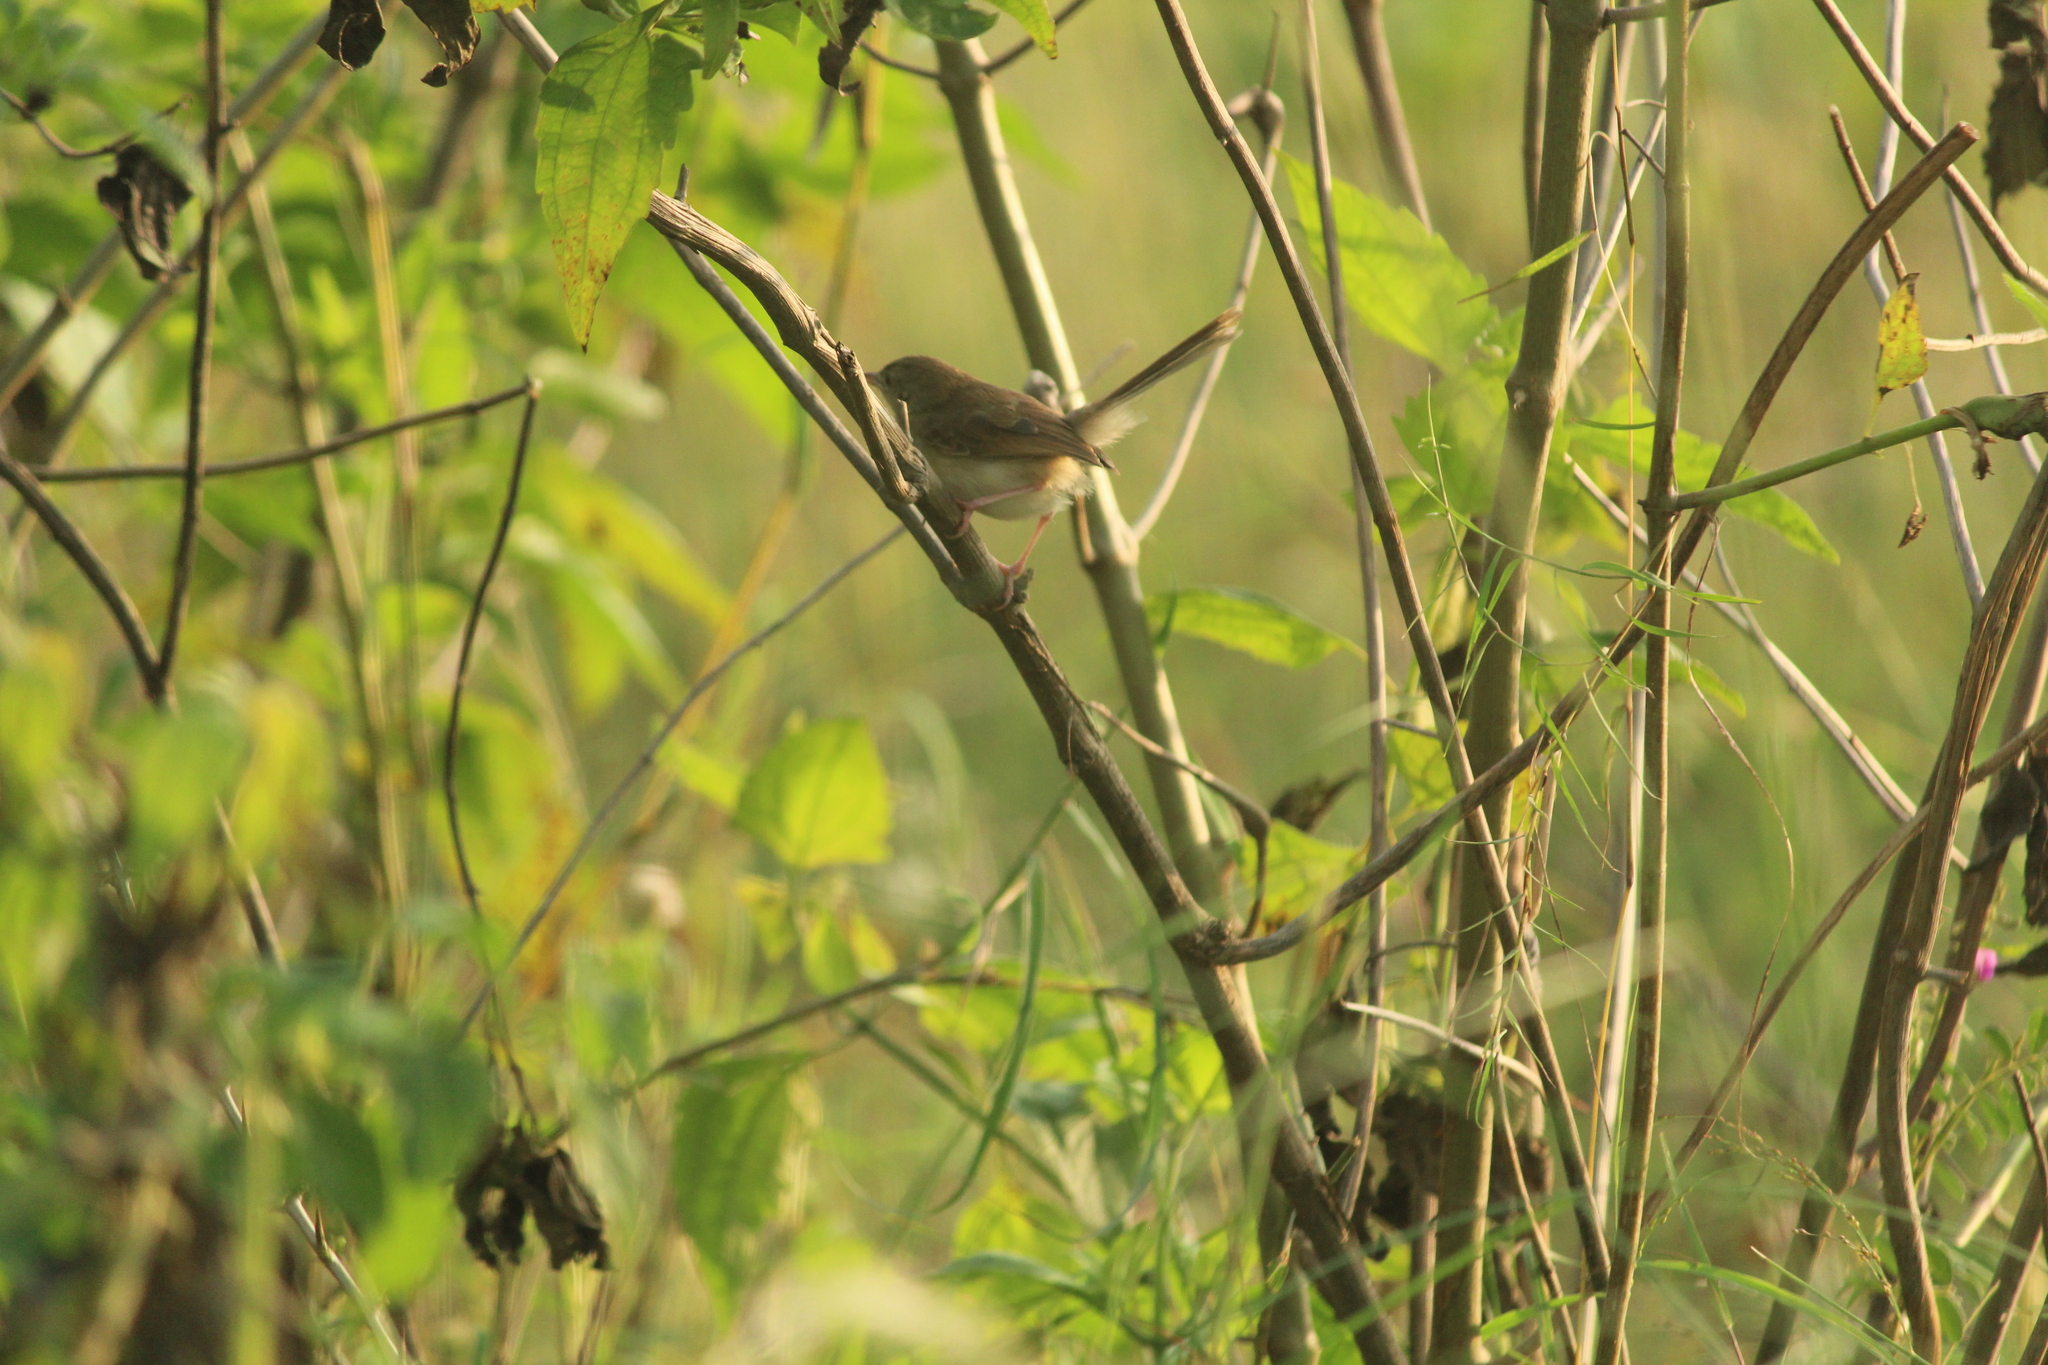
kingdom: Animalia
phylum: Chordata
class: Aves
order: Passeriformes
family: Cisticolidae
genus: Prinia
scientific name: Prinia inornata
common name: Plain prinia
